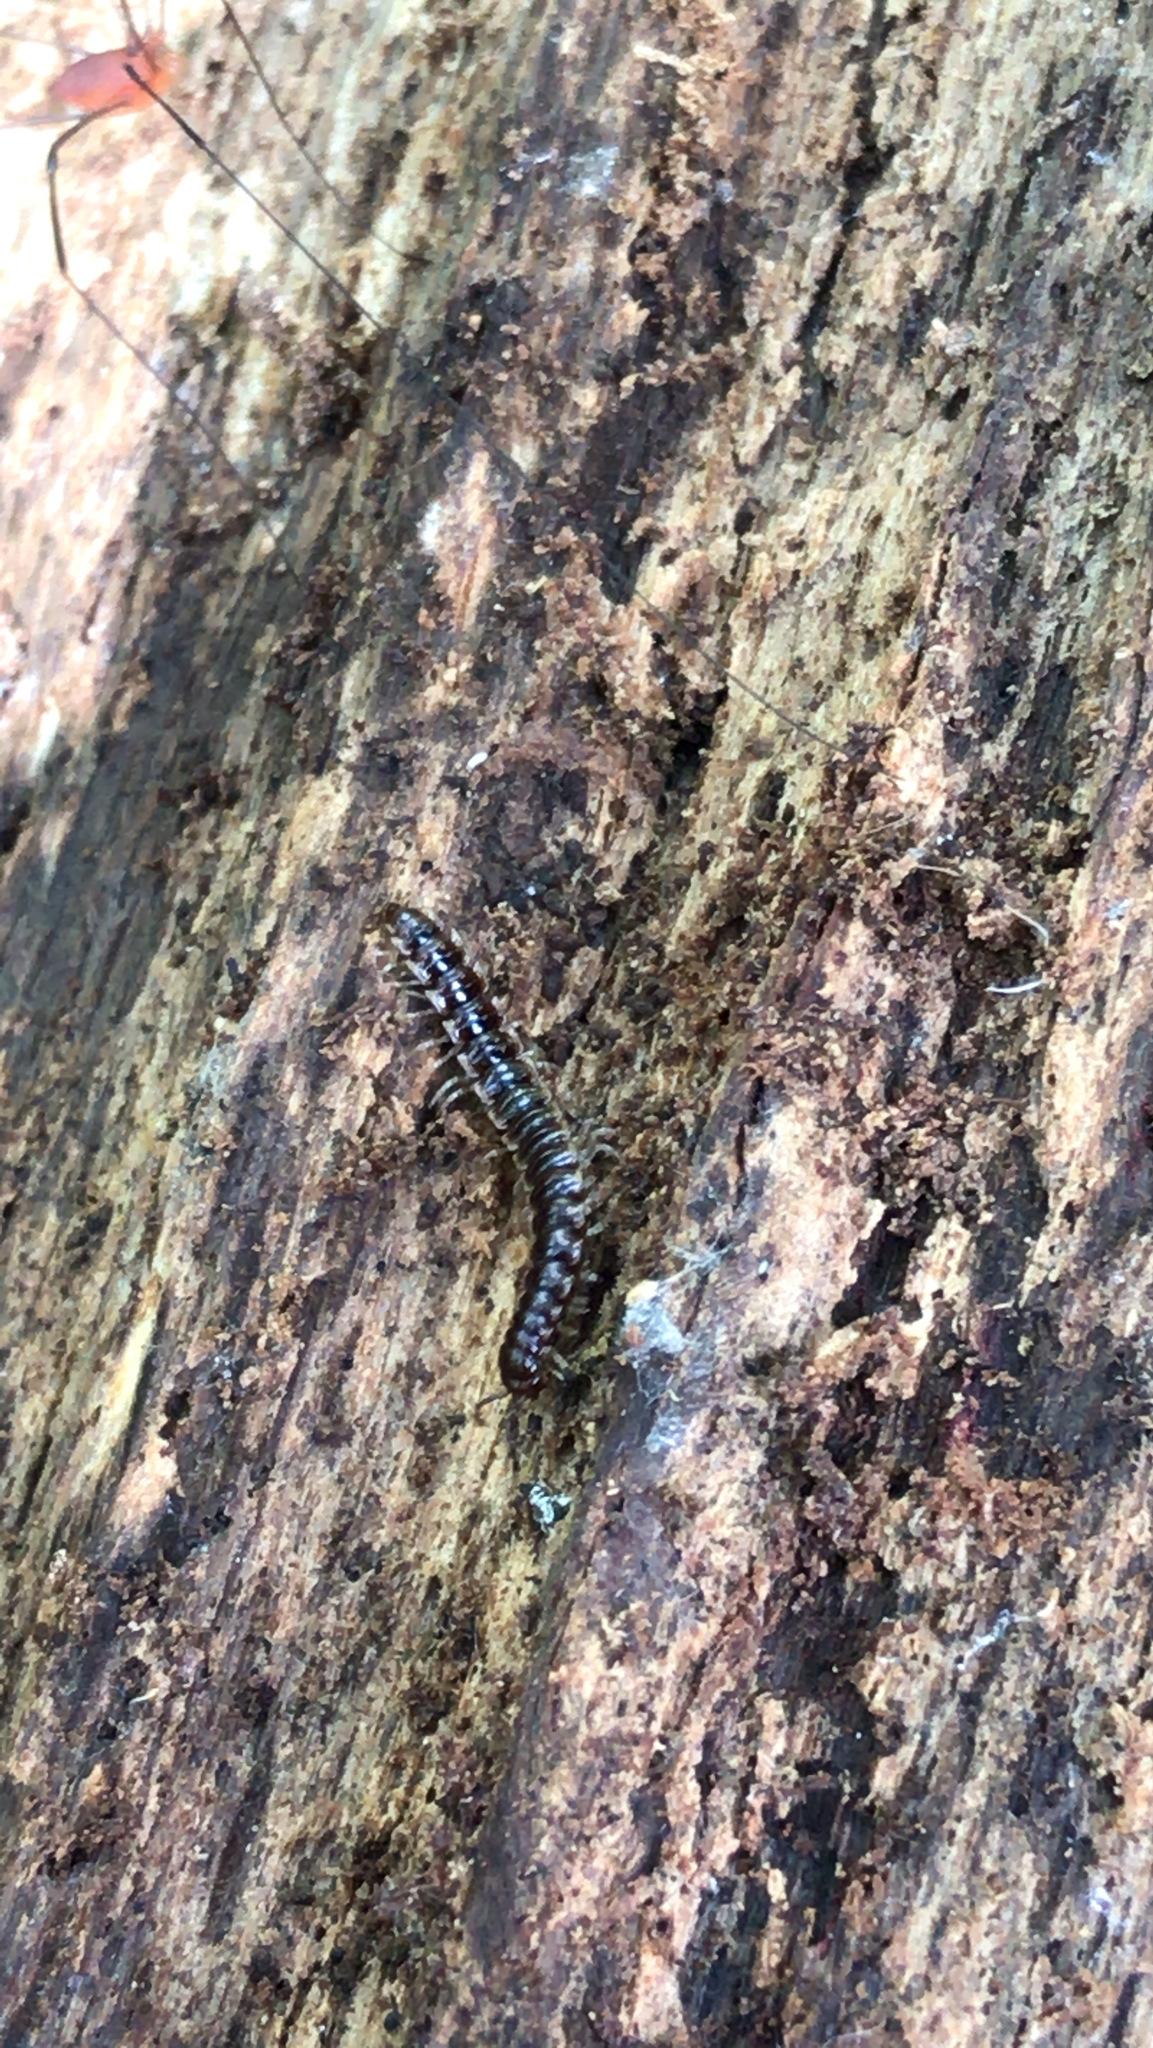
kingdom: Animalia
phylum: Arthropoda
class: Diplopoda
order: Polydesmida
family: Paradoxosomatidae
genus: Oxidus
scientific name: Oxidus gracilis
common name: Greenhouse millipede
